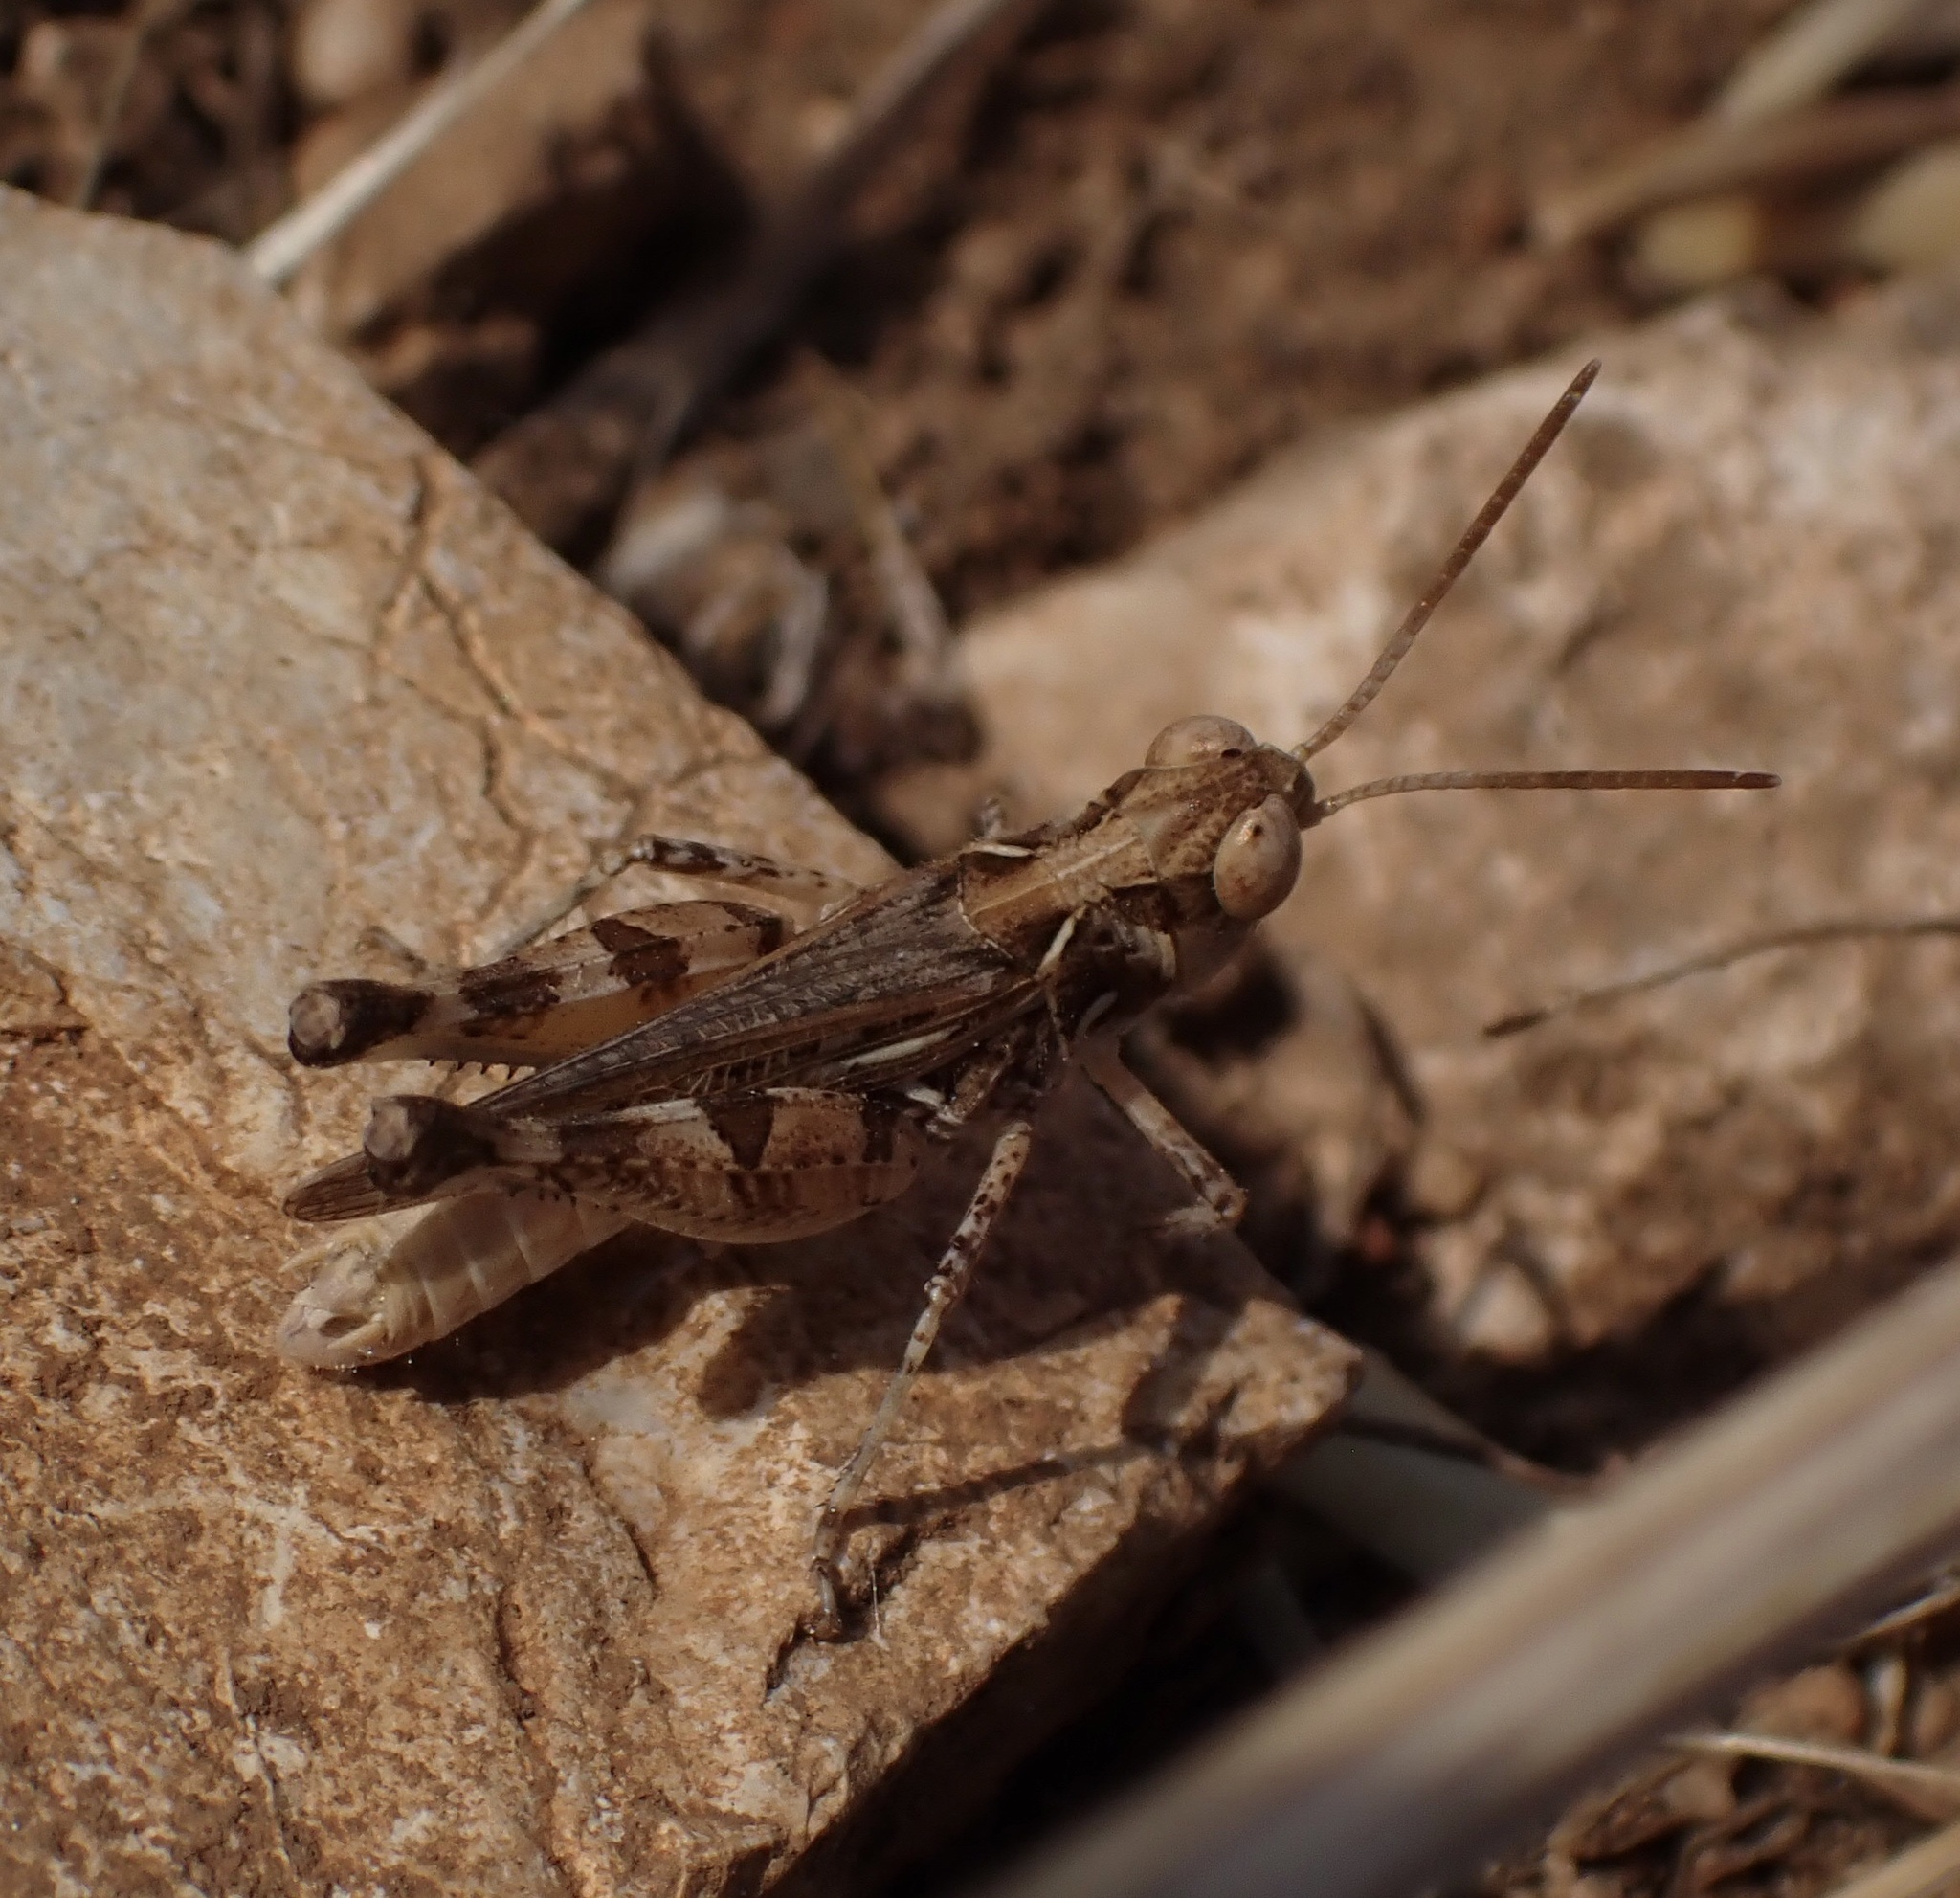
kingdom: Animalia
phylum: Arthropoda
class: Insecta
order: Orthoptera
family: Acrididae
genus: Dociostaurus
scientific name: Dociostaurus genei
